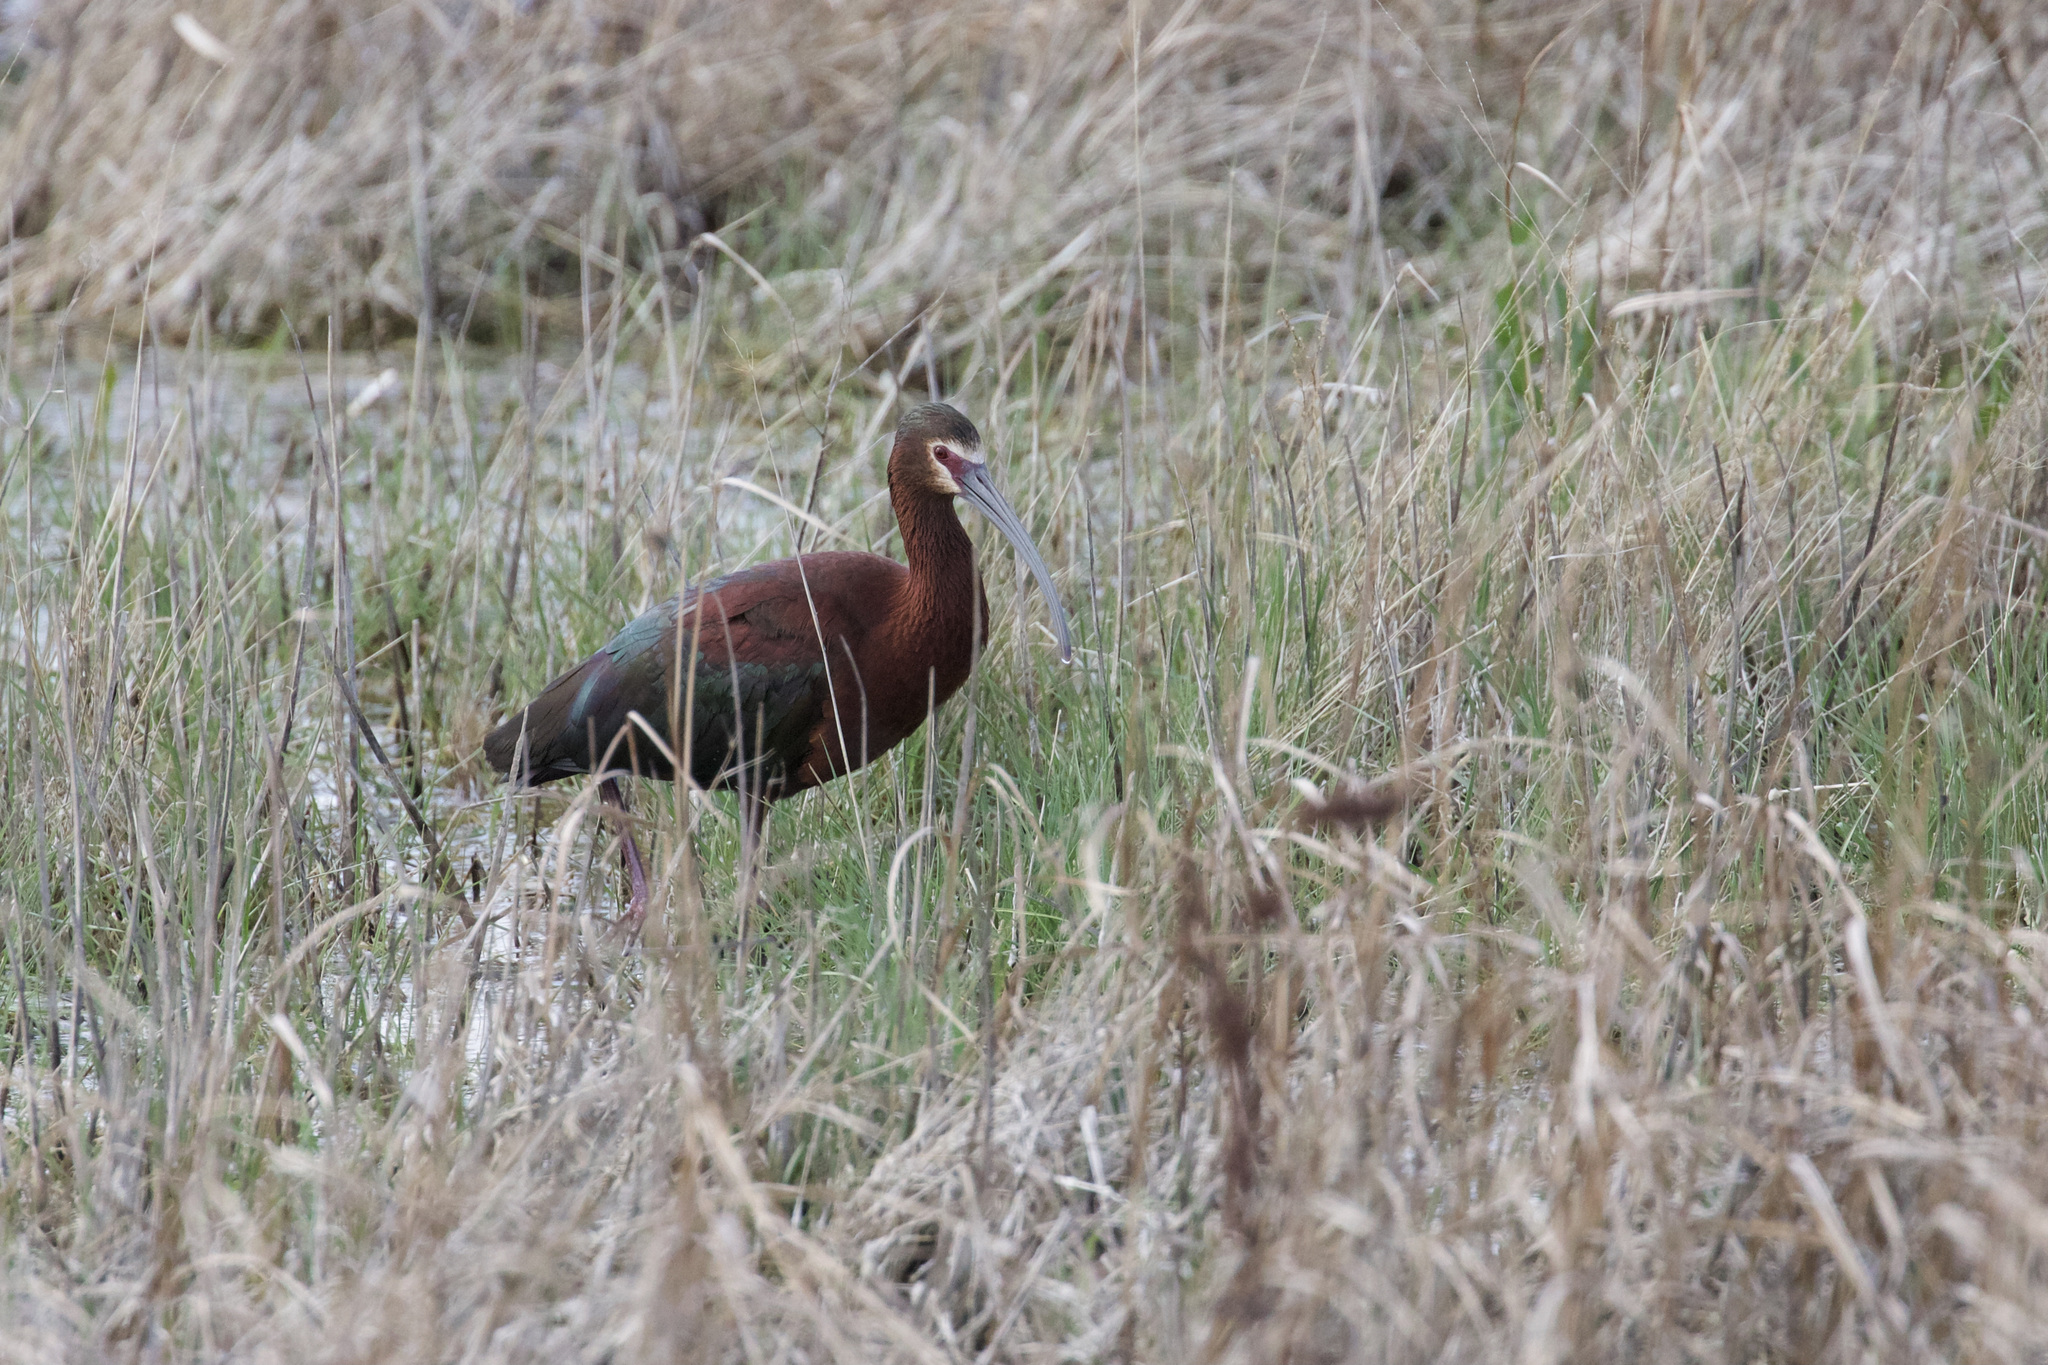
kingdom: Animalia
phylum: Chordata
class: Aves
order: Pelecaniformes
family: Threskiornithidae
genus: Plegadis
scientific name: Plegadis chihi
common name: White-faced ibis
